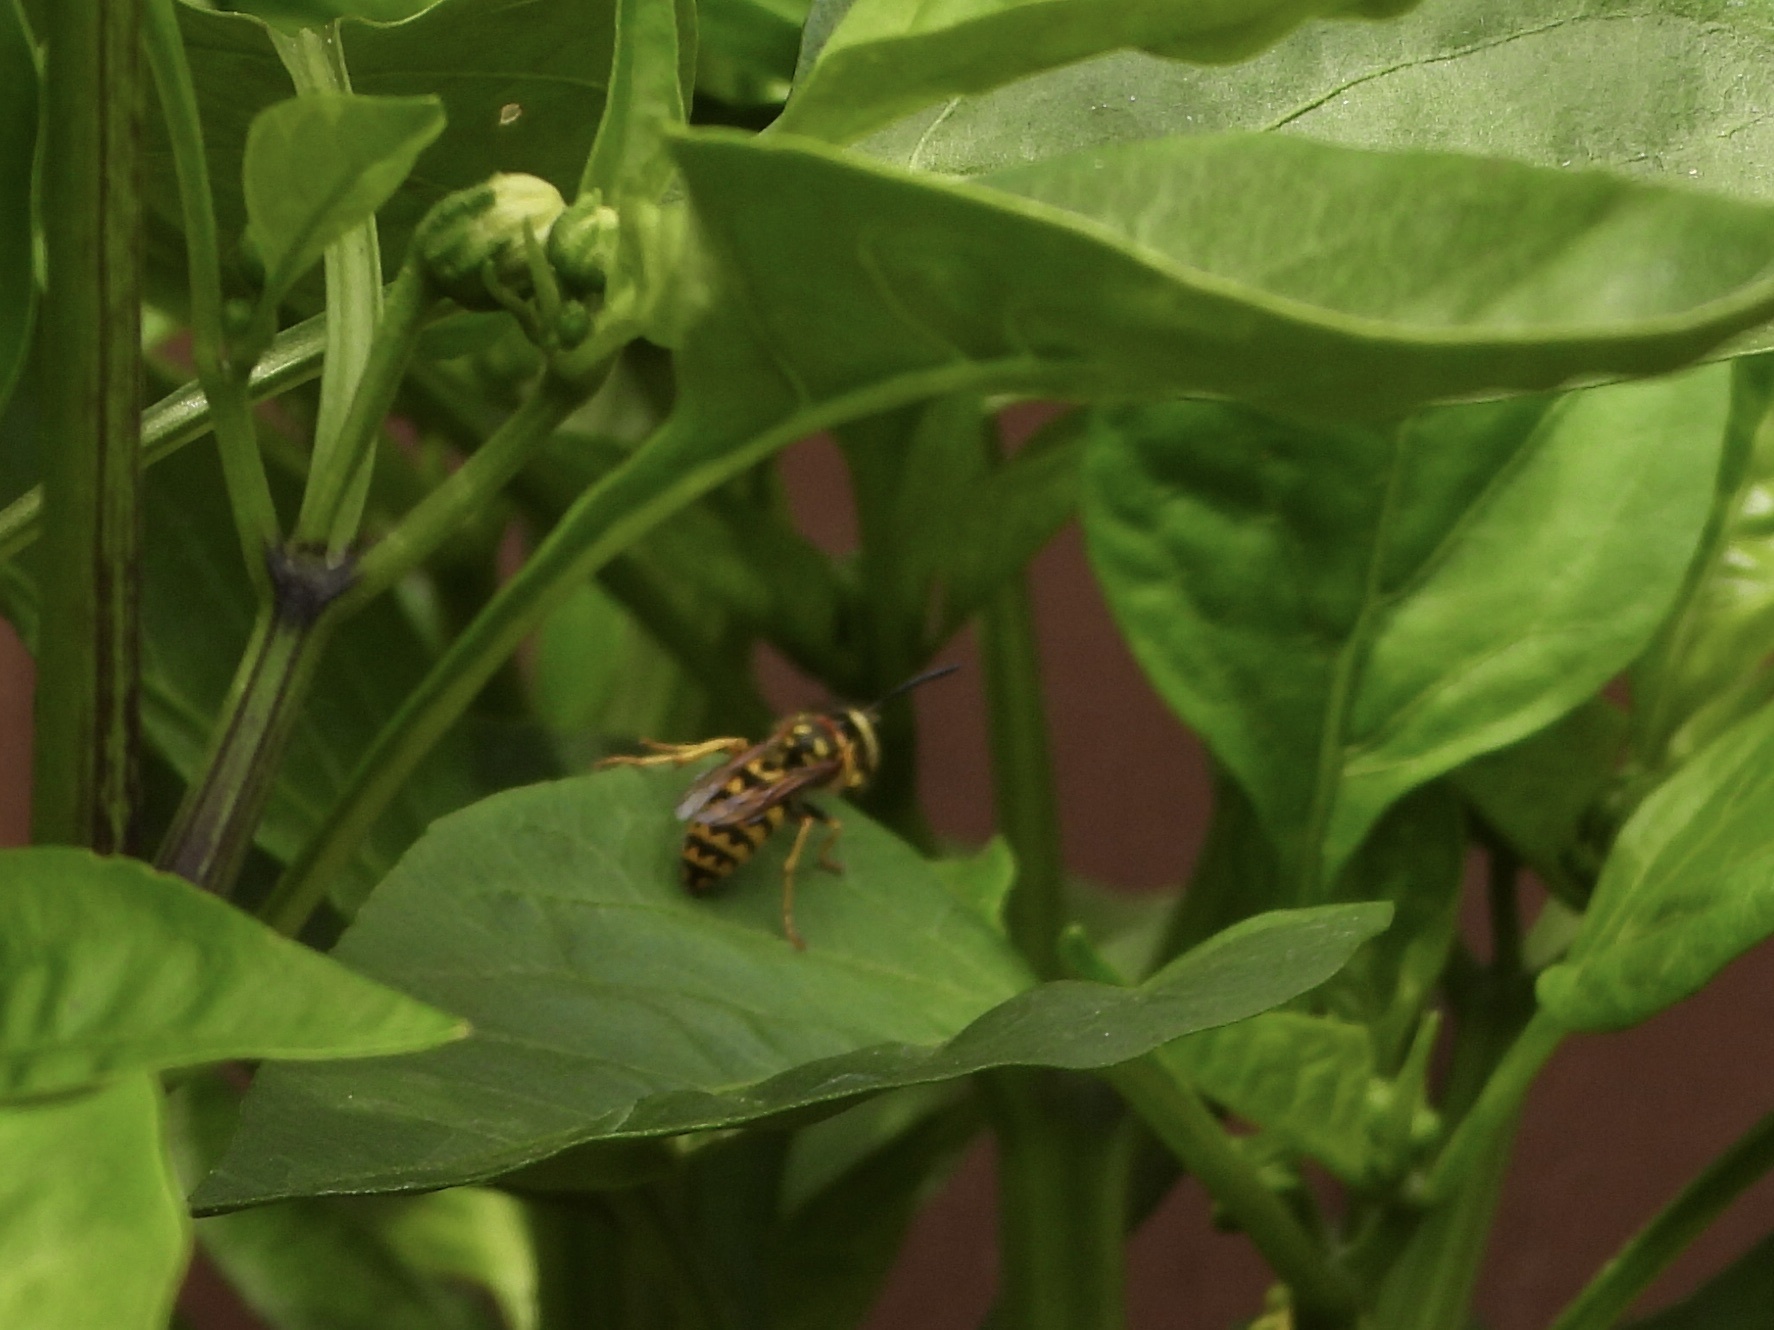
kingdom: Animalia
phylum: Arthropoda
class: Insecta
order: Hymenoptera
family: Vespidae
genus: Vespula
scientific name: Vespula pensylvanica
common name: Western yellowjacket
